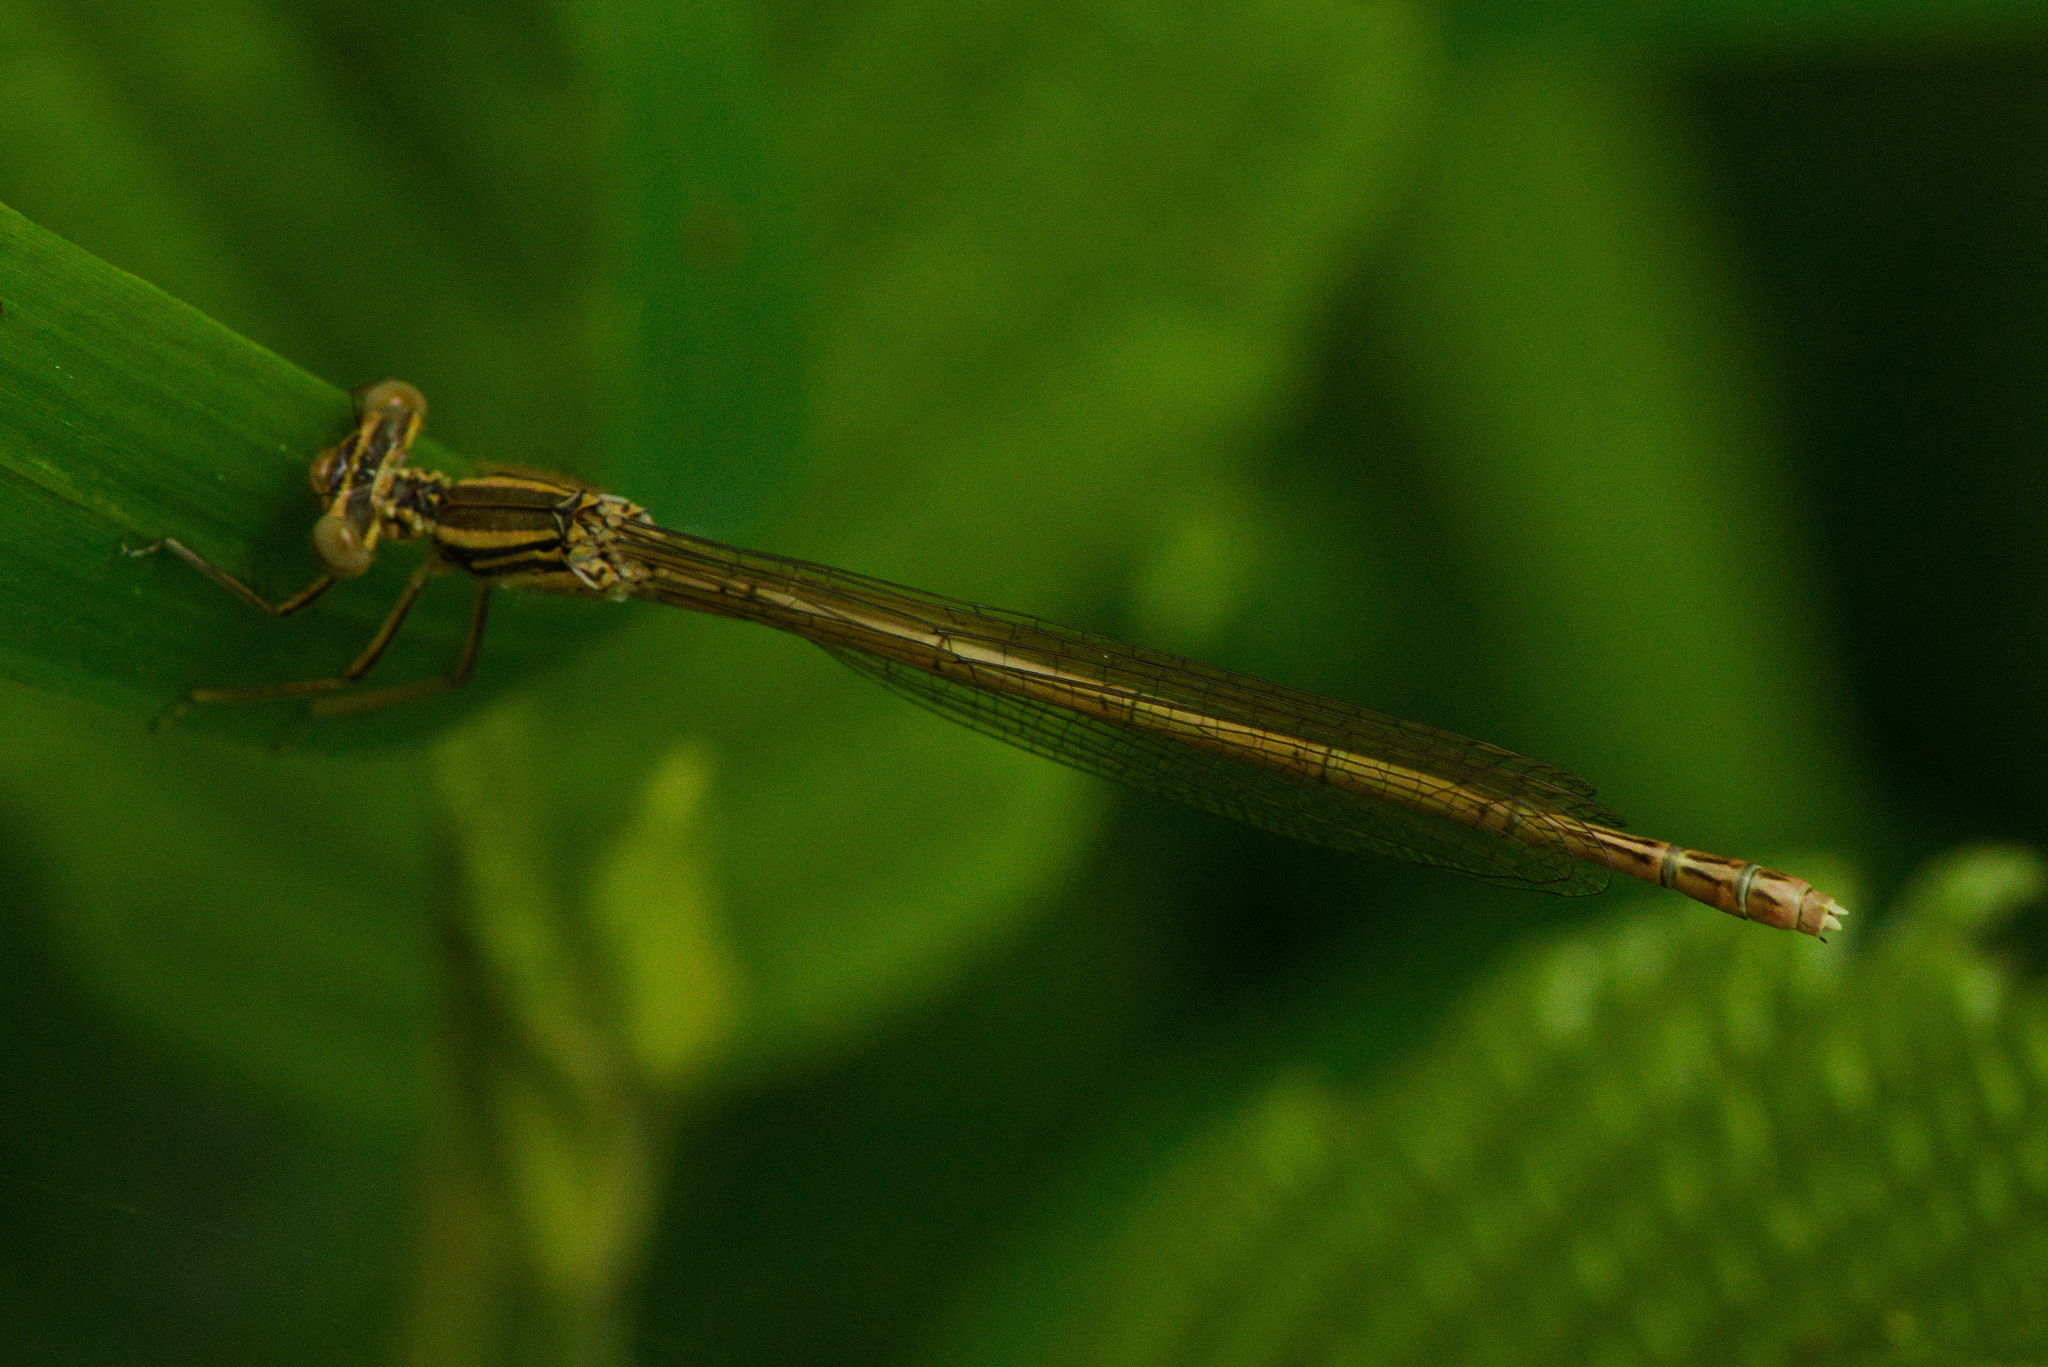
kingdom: Animalia
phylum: Arthropoda
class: Insecta
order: Odonata
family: Platycnemididae
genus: Platycnemis
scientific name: Platycnemis pennipes
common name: White-legged damselfly
